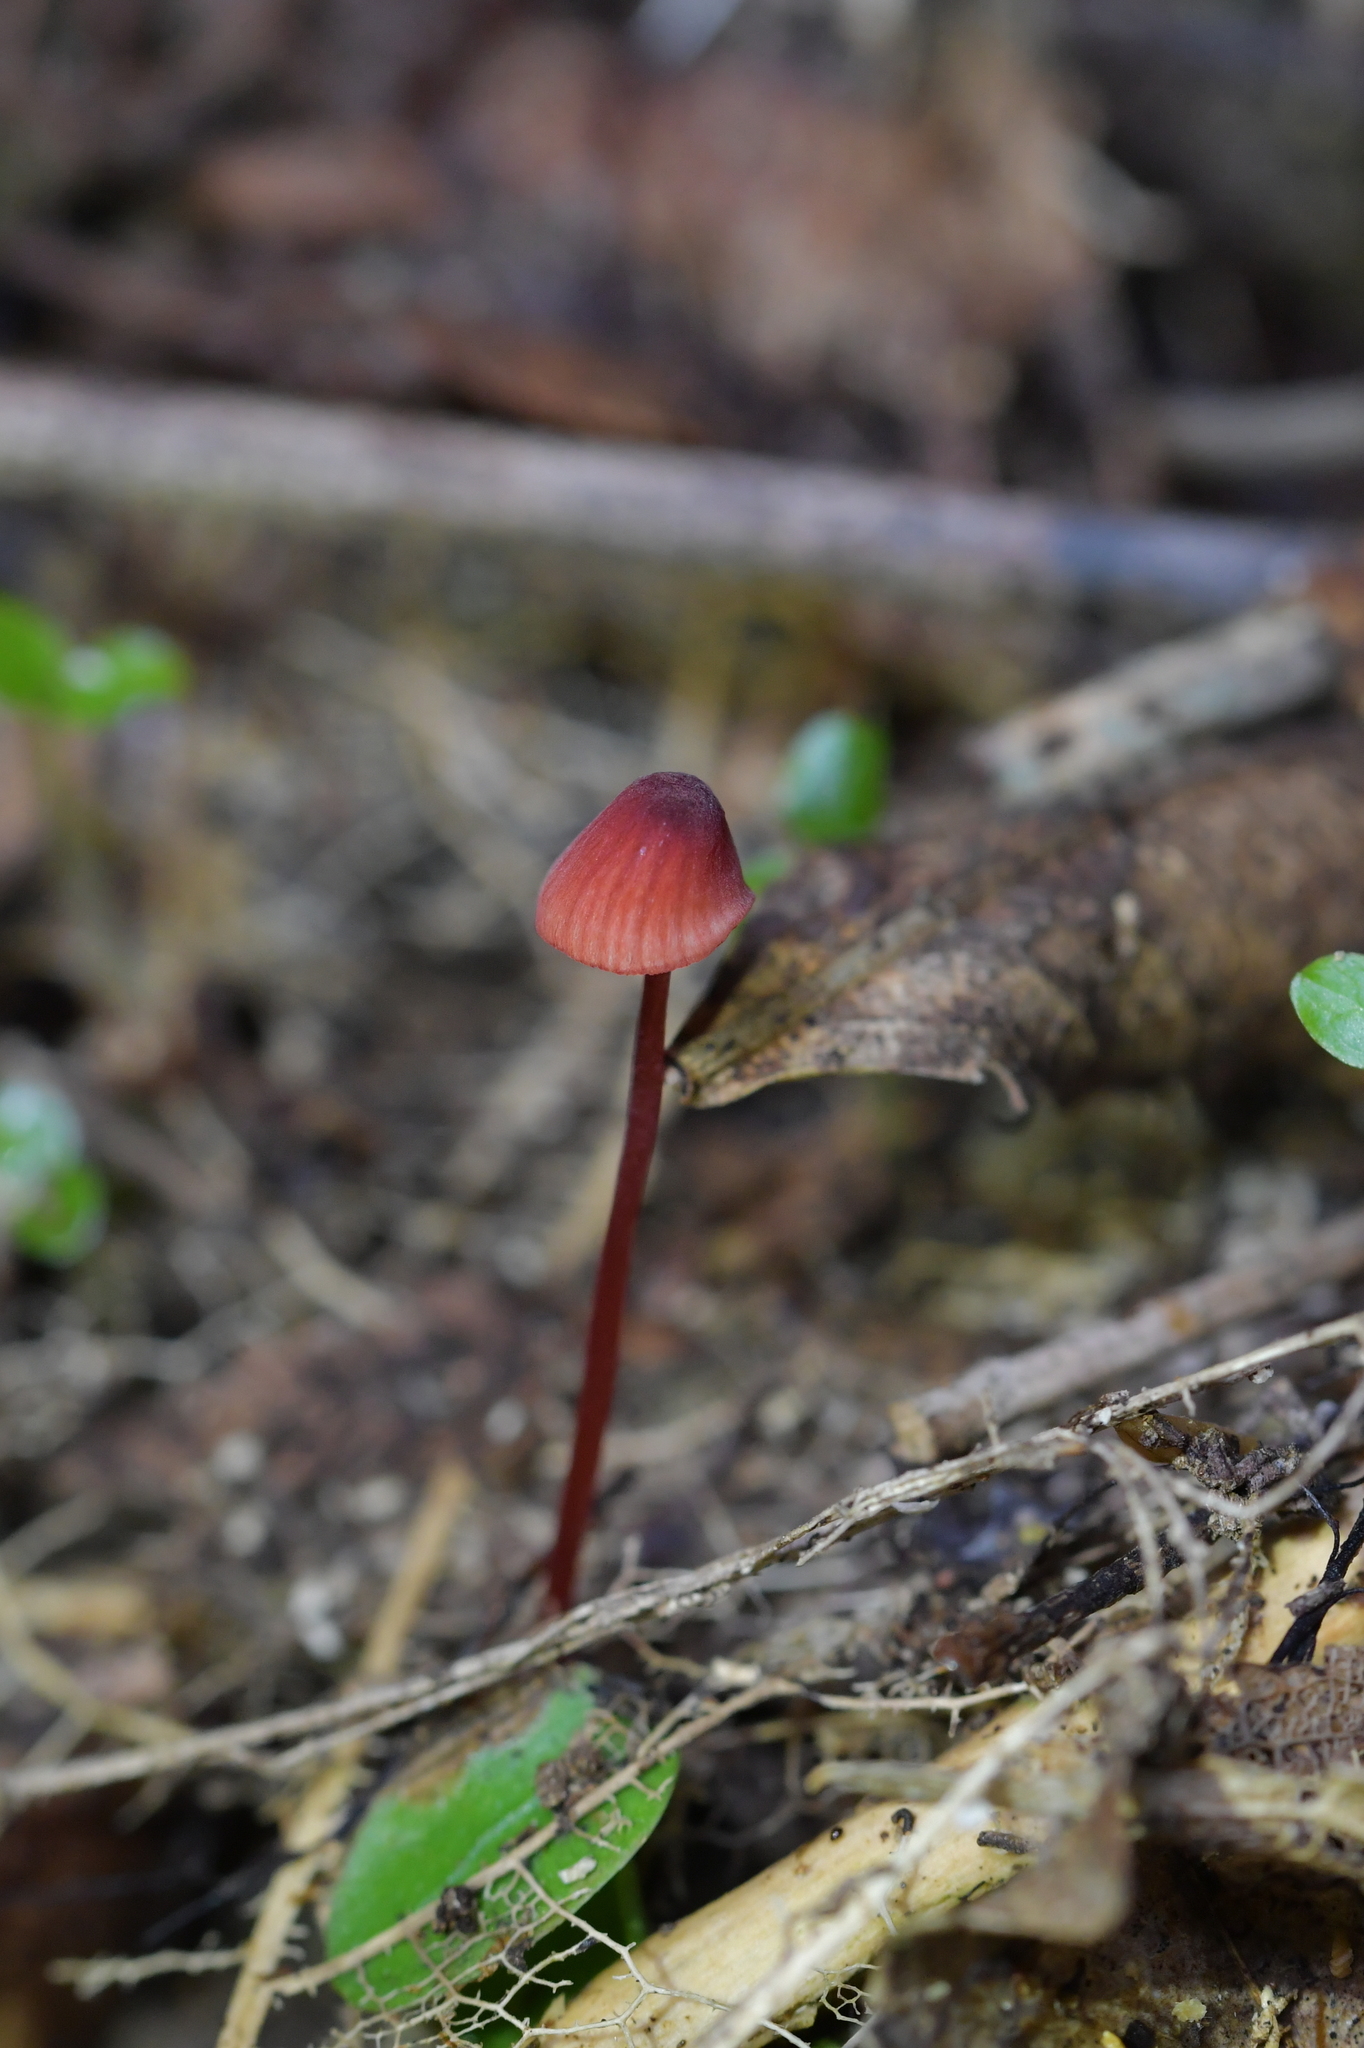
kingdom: Fungi
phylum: Basidiomycota
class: Agaricomycetes
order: Agaricales
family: Mycenaceae
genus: Mycena
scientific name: Mycena ura
